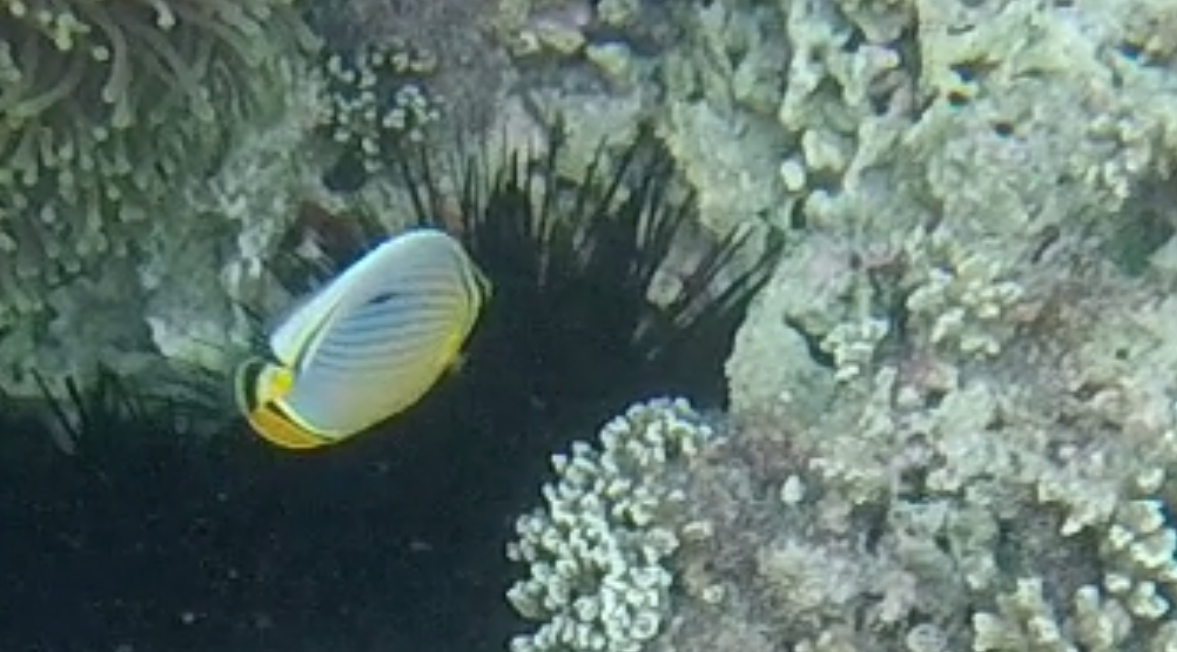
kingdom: Animalia
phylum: Chordata
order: Perciformes
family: Chaetodontidae
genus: Chaetodon
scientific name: Chaetodon trifasciatus
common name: Redfin butterflyfish
